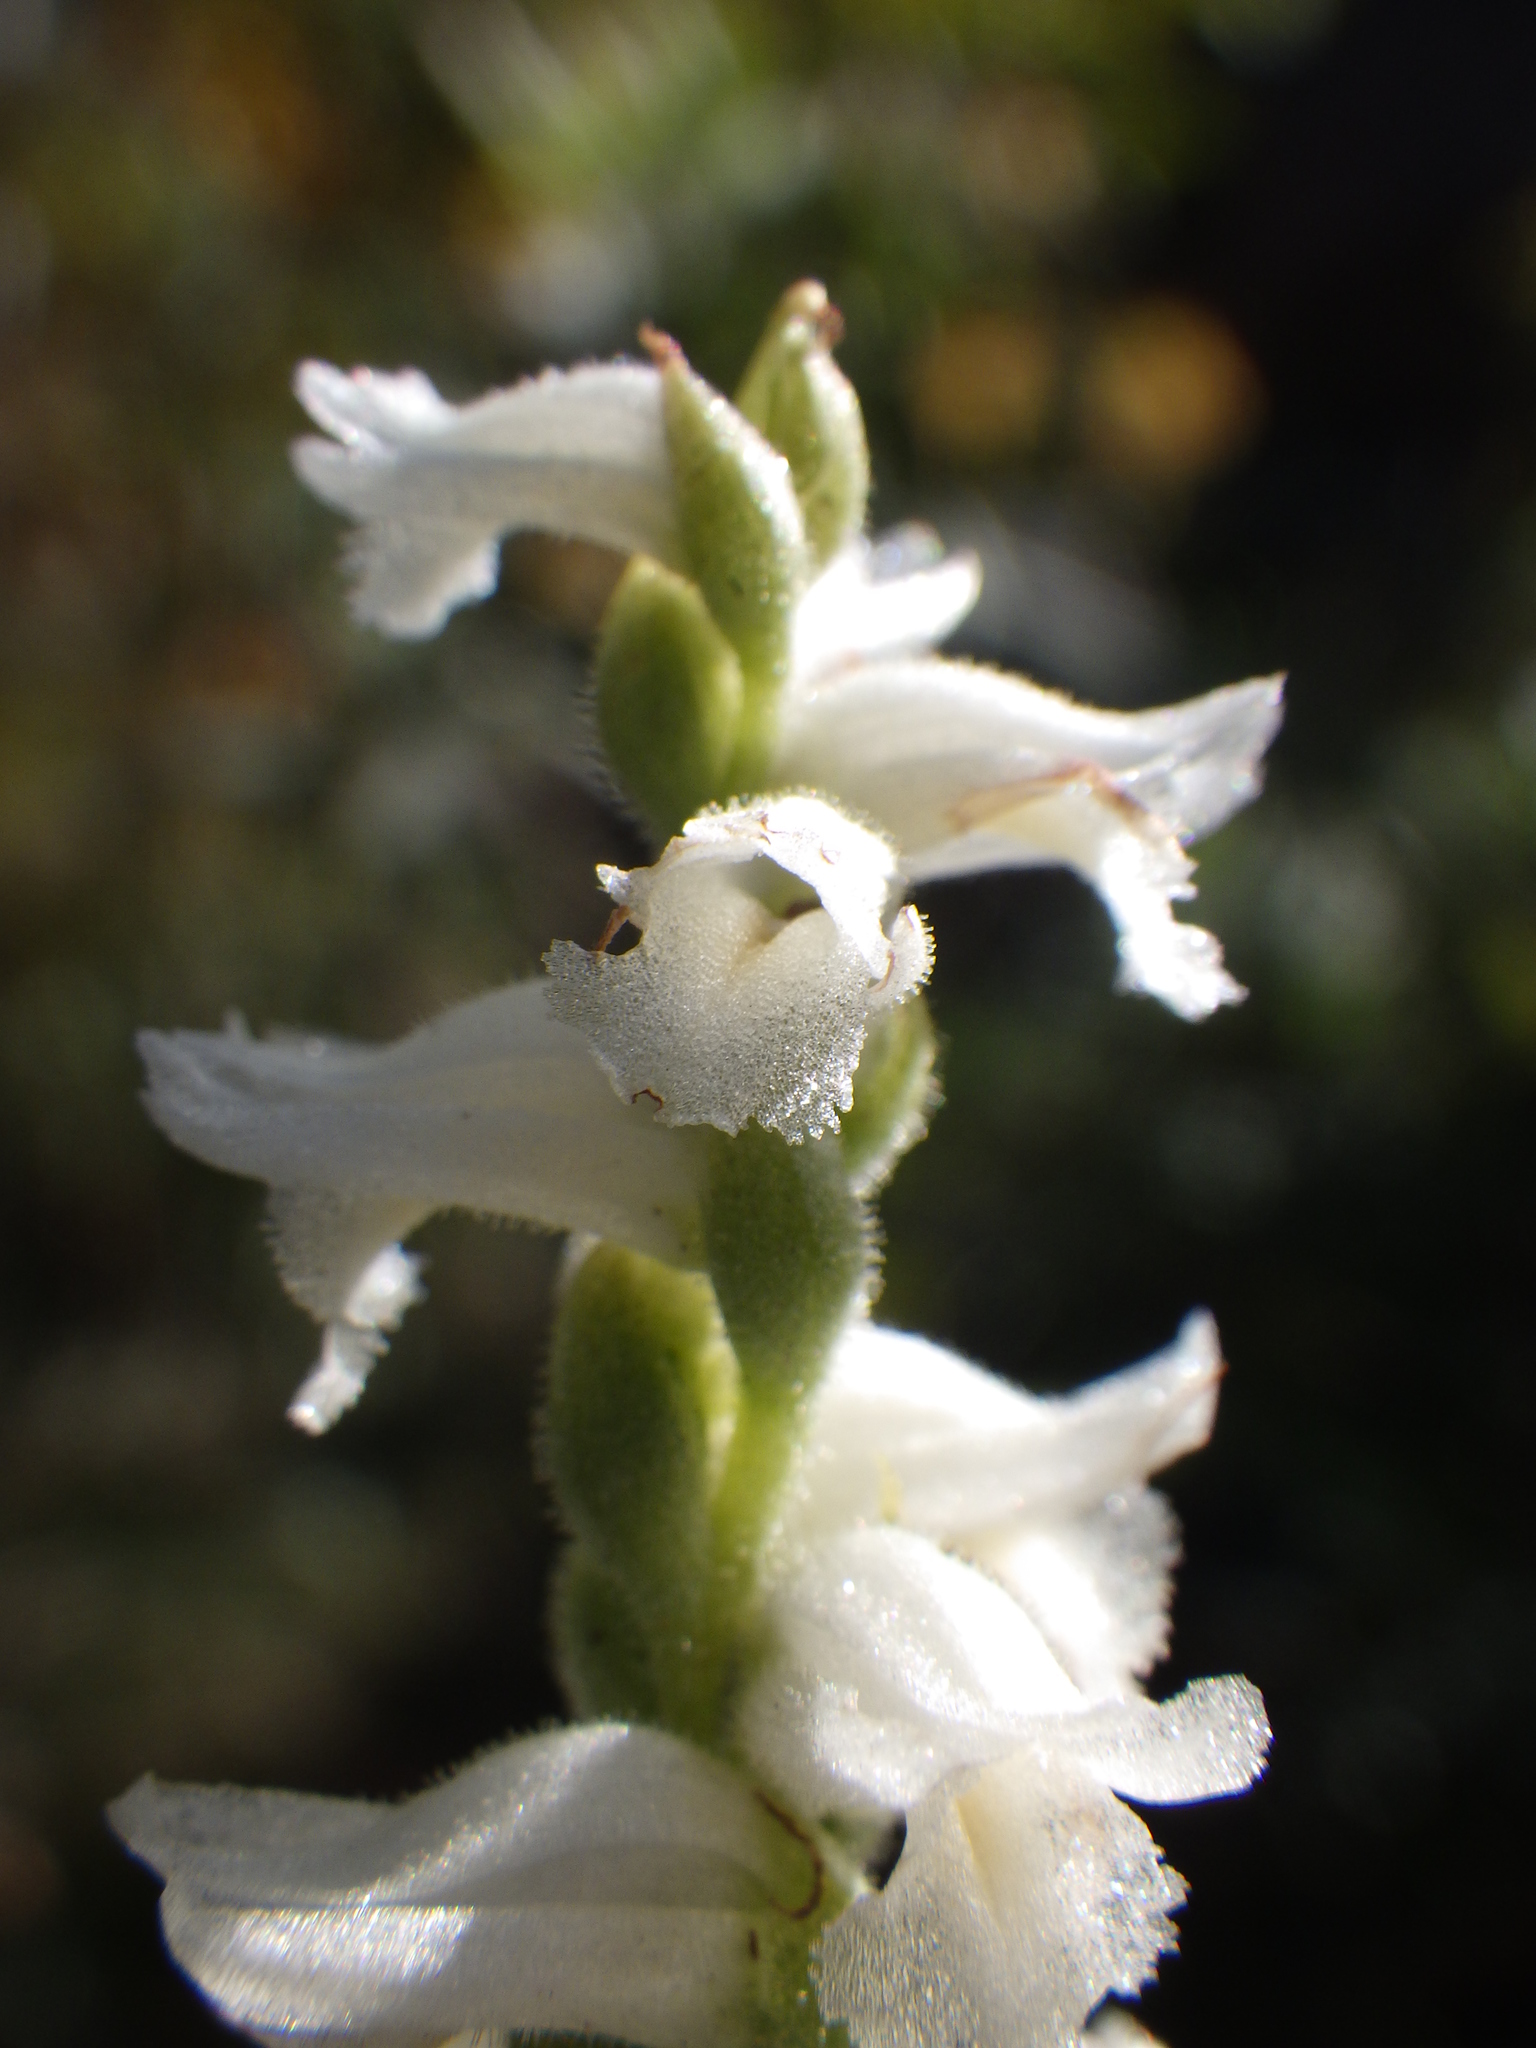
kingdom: Plantae
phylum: Tracheophyta
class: Liliopsida
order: Asparagales
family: Orchidaceae
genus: Spiranthes
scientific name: Spiranthes cernua
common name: Dropping ladies'-tresses
